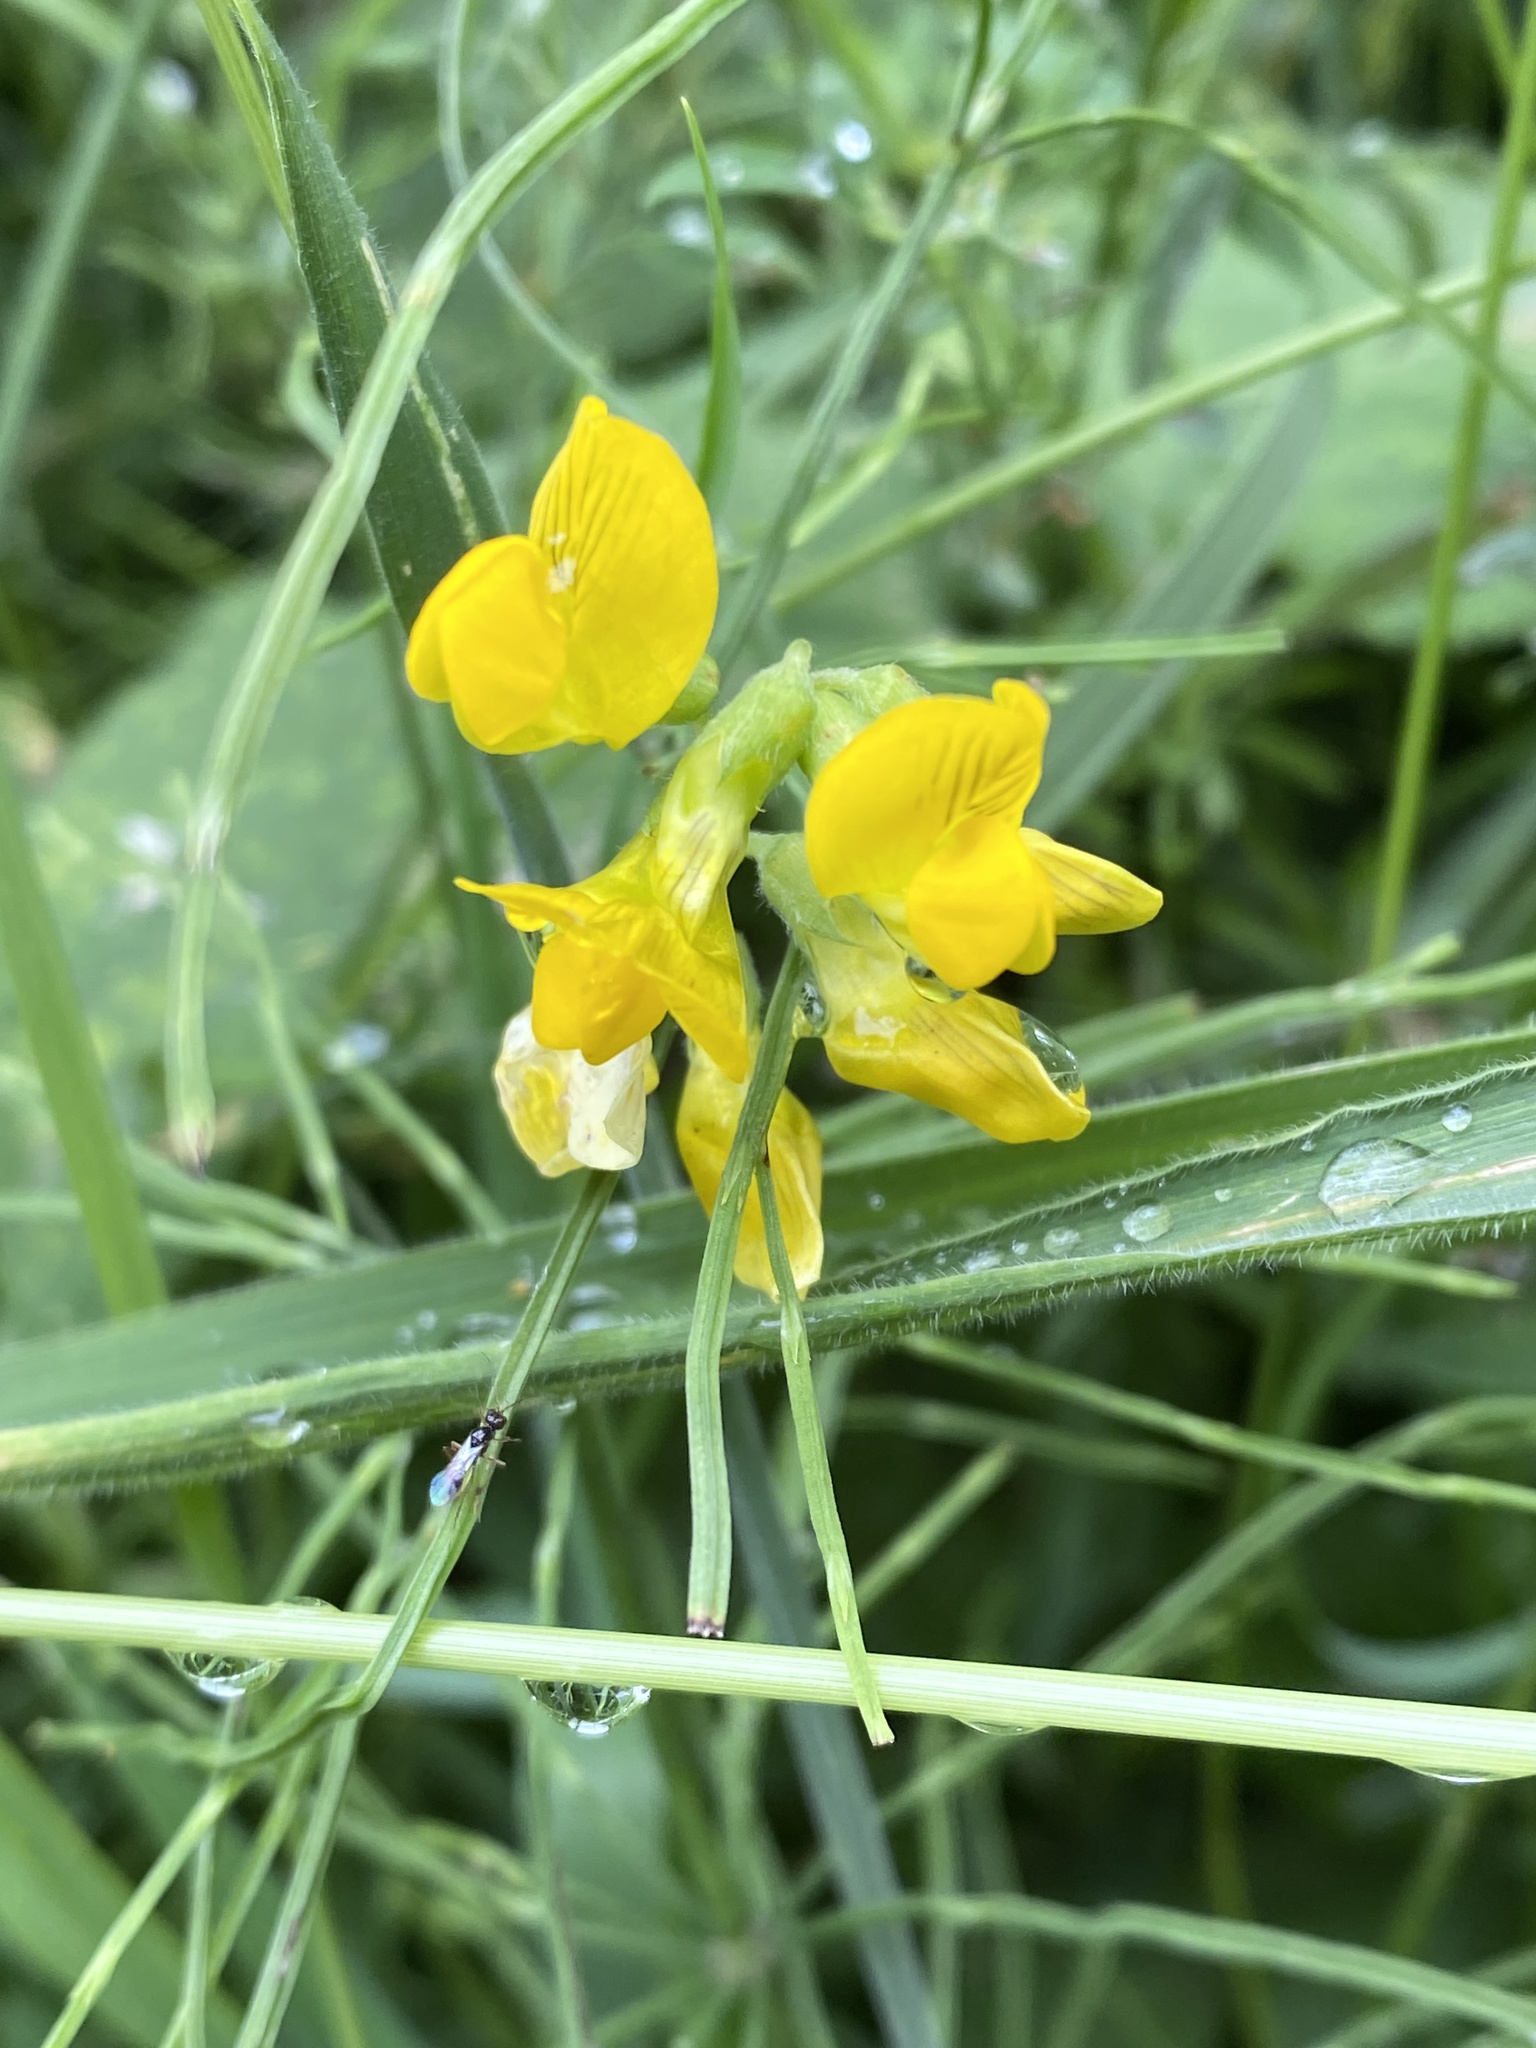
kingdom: Plantae
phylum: Tracheophyta
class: Magnoliopsida
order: Fabales
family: Fabaceae
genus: Lathyrus
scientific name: Lathyrus pratensis
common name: Meadow vetchling
